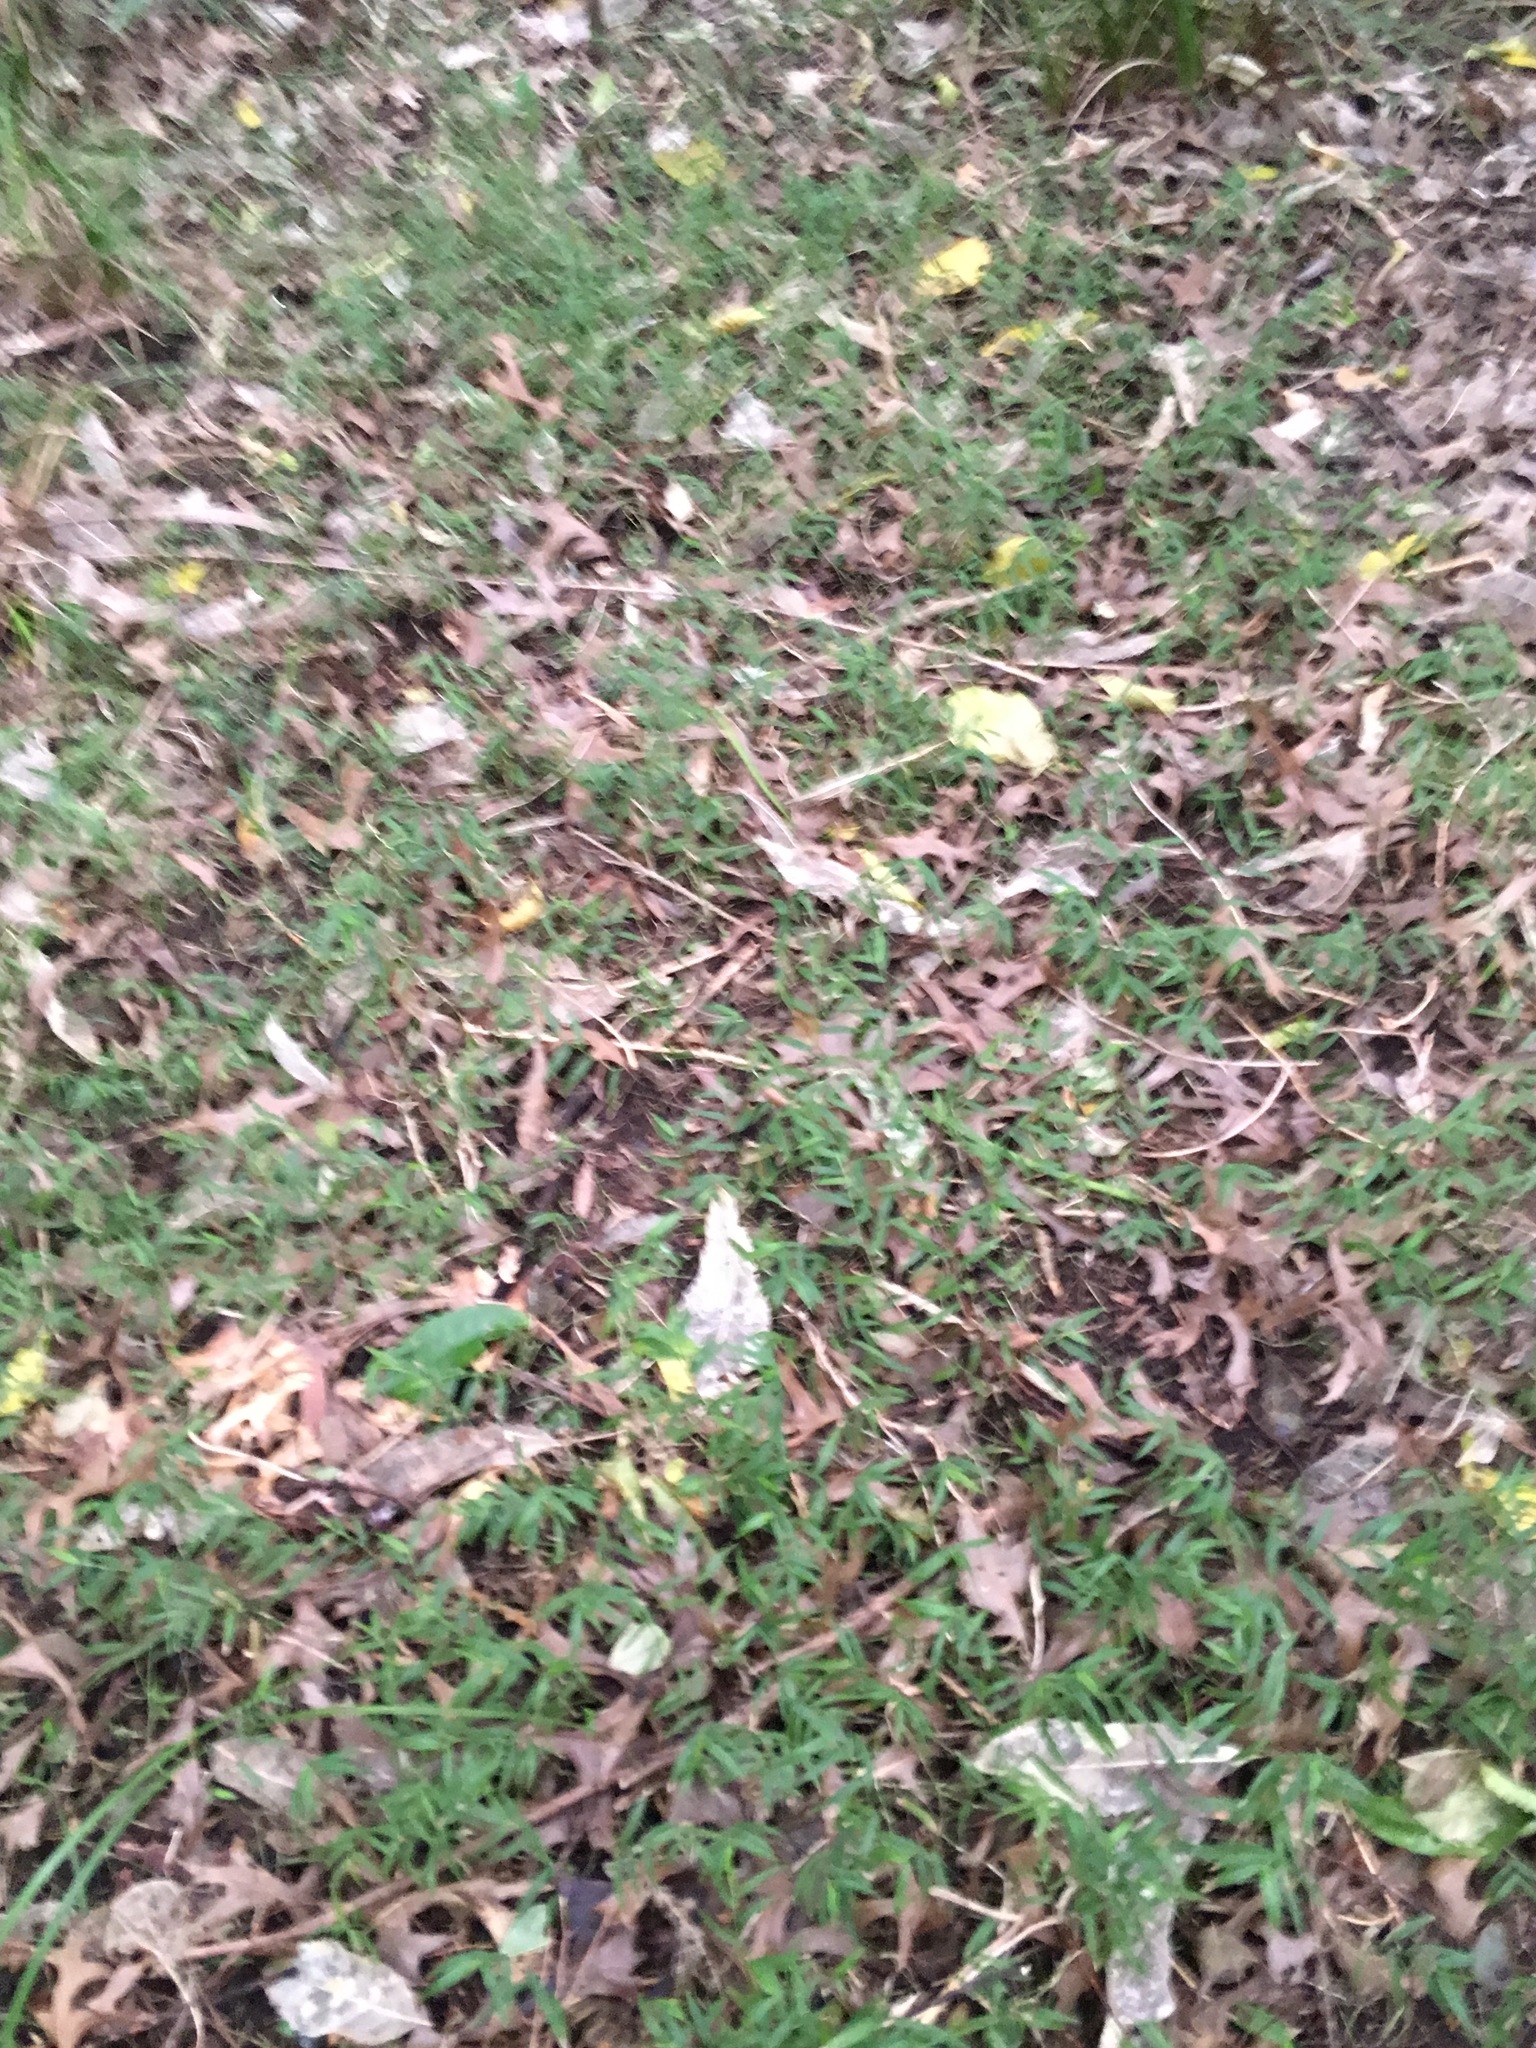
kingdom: Plantae
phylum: Tracheophyta
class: Liliopsida
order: Poales
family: Poaceae
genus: Oplismenus
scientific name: Oplismenus hirtellus
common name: Basketgrass
